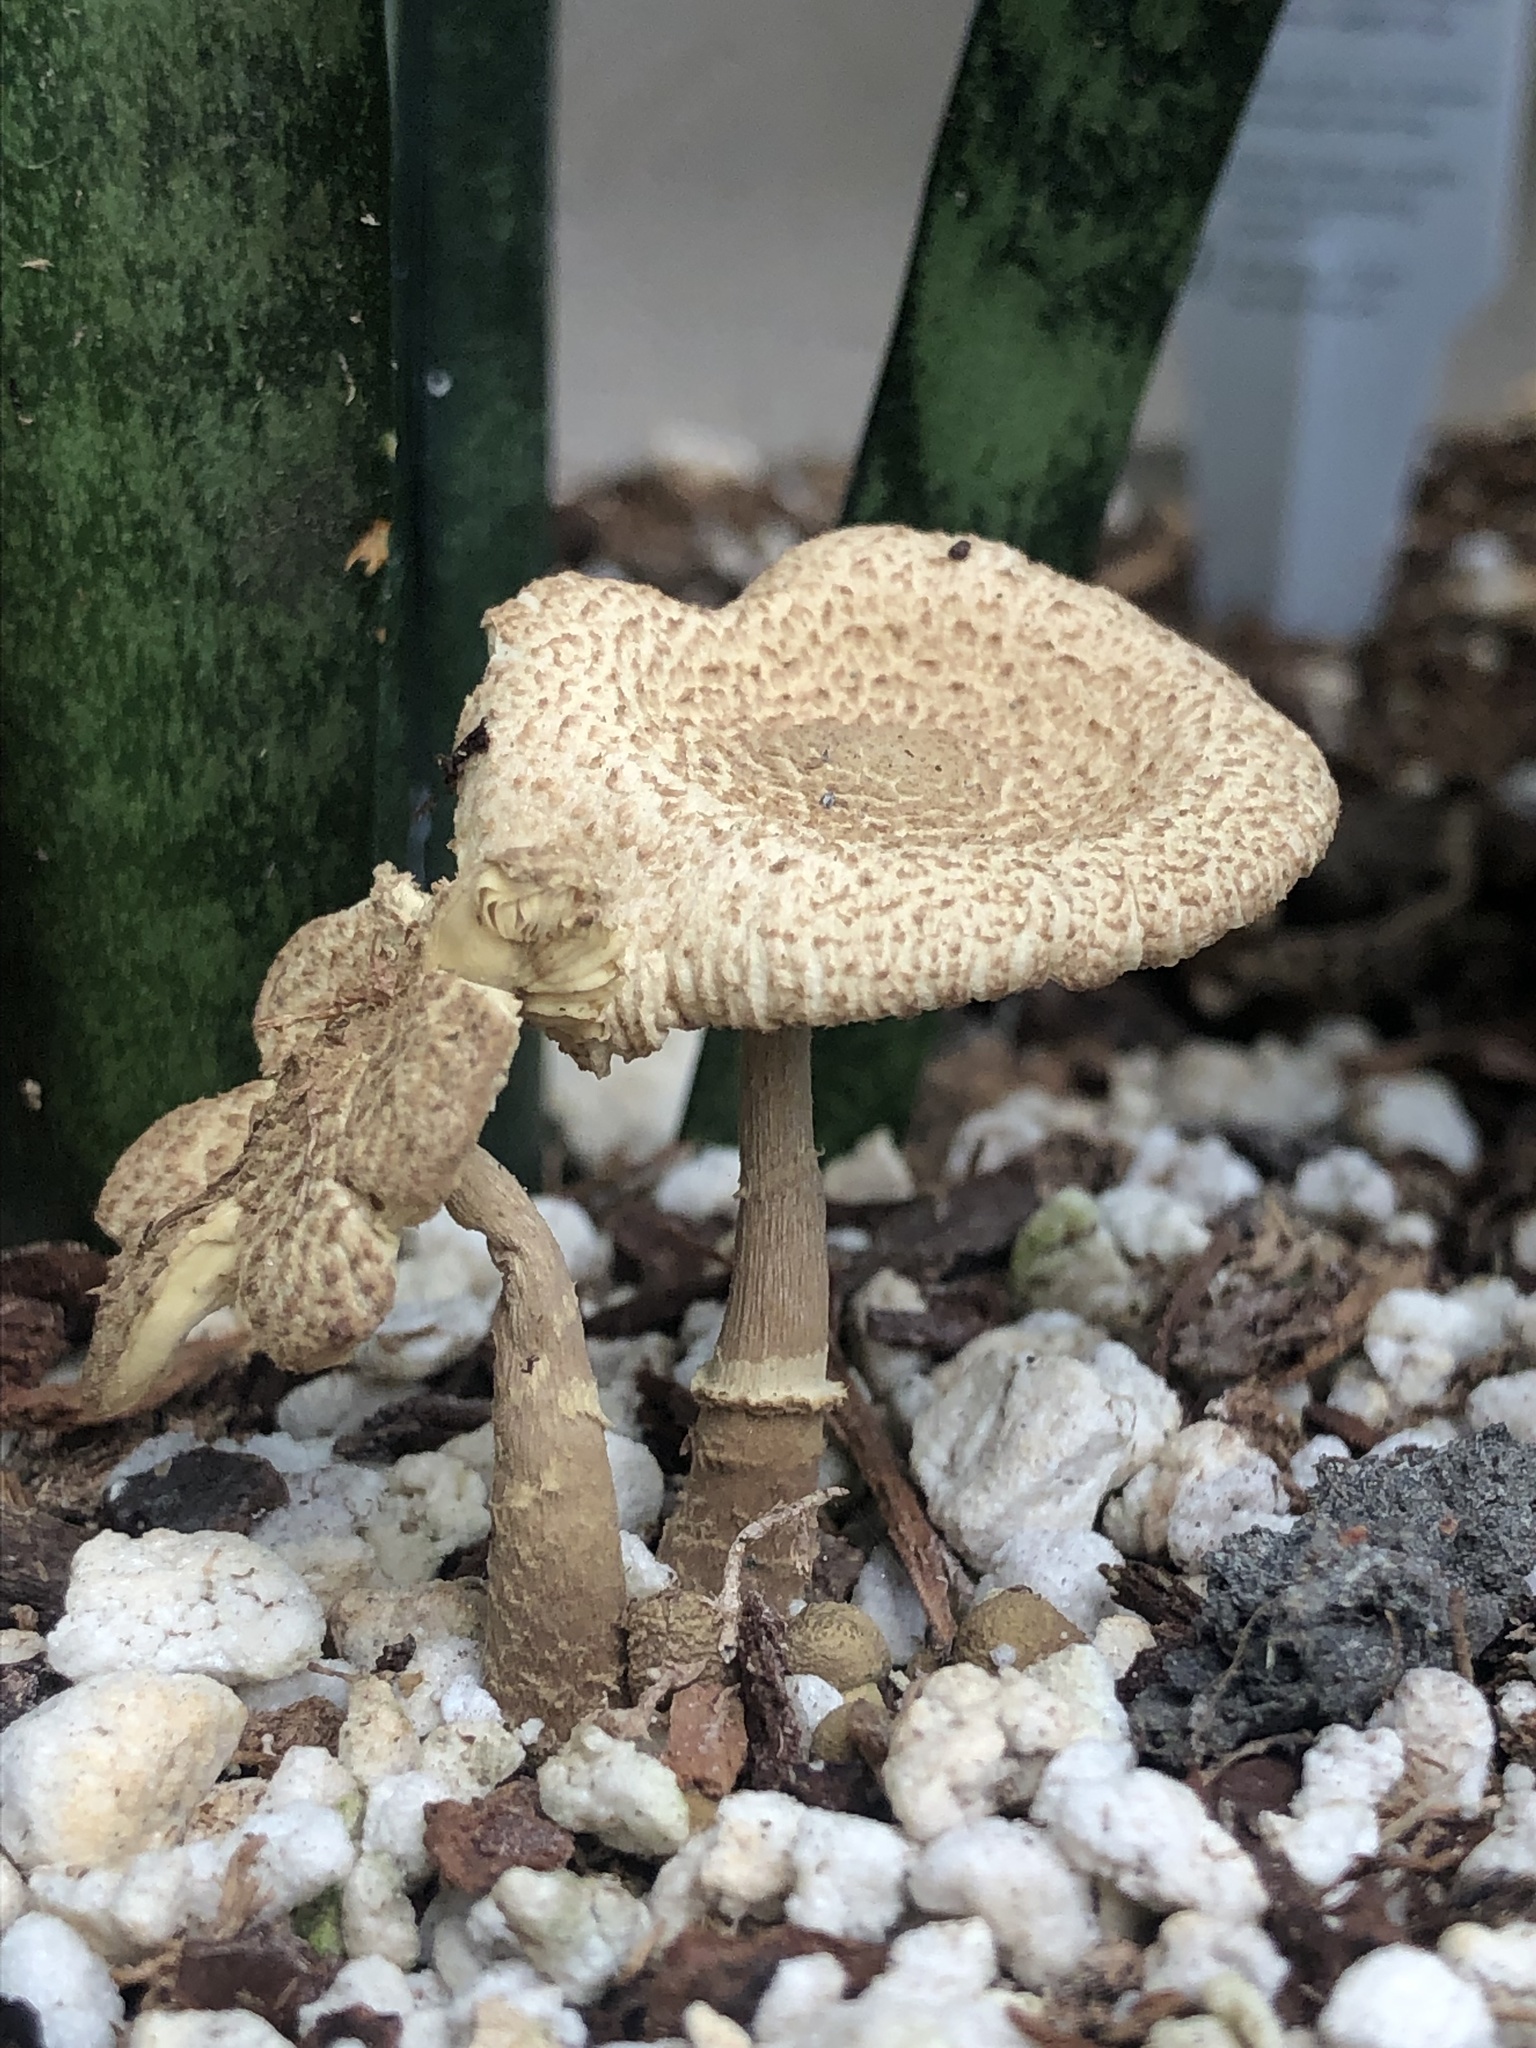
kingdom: Fungi
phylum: Basidiomycota
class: Agaricomycetes
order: Agaricales
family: Agaricaceae
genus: Leucocoprinus
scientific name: Leucocoprinus birnbaumii
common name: Plantpot dapperling
